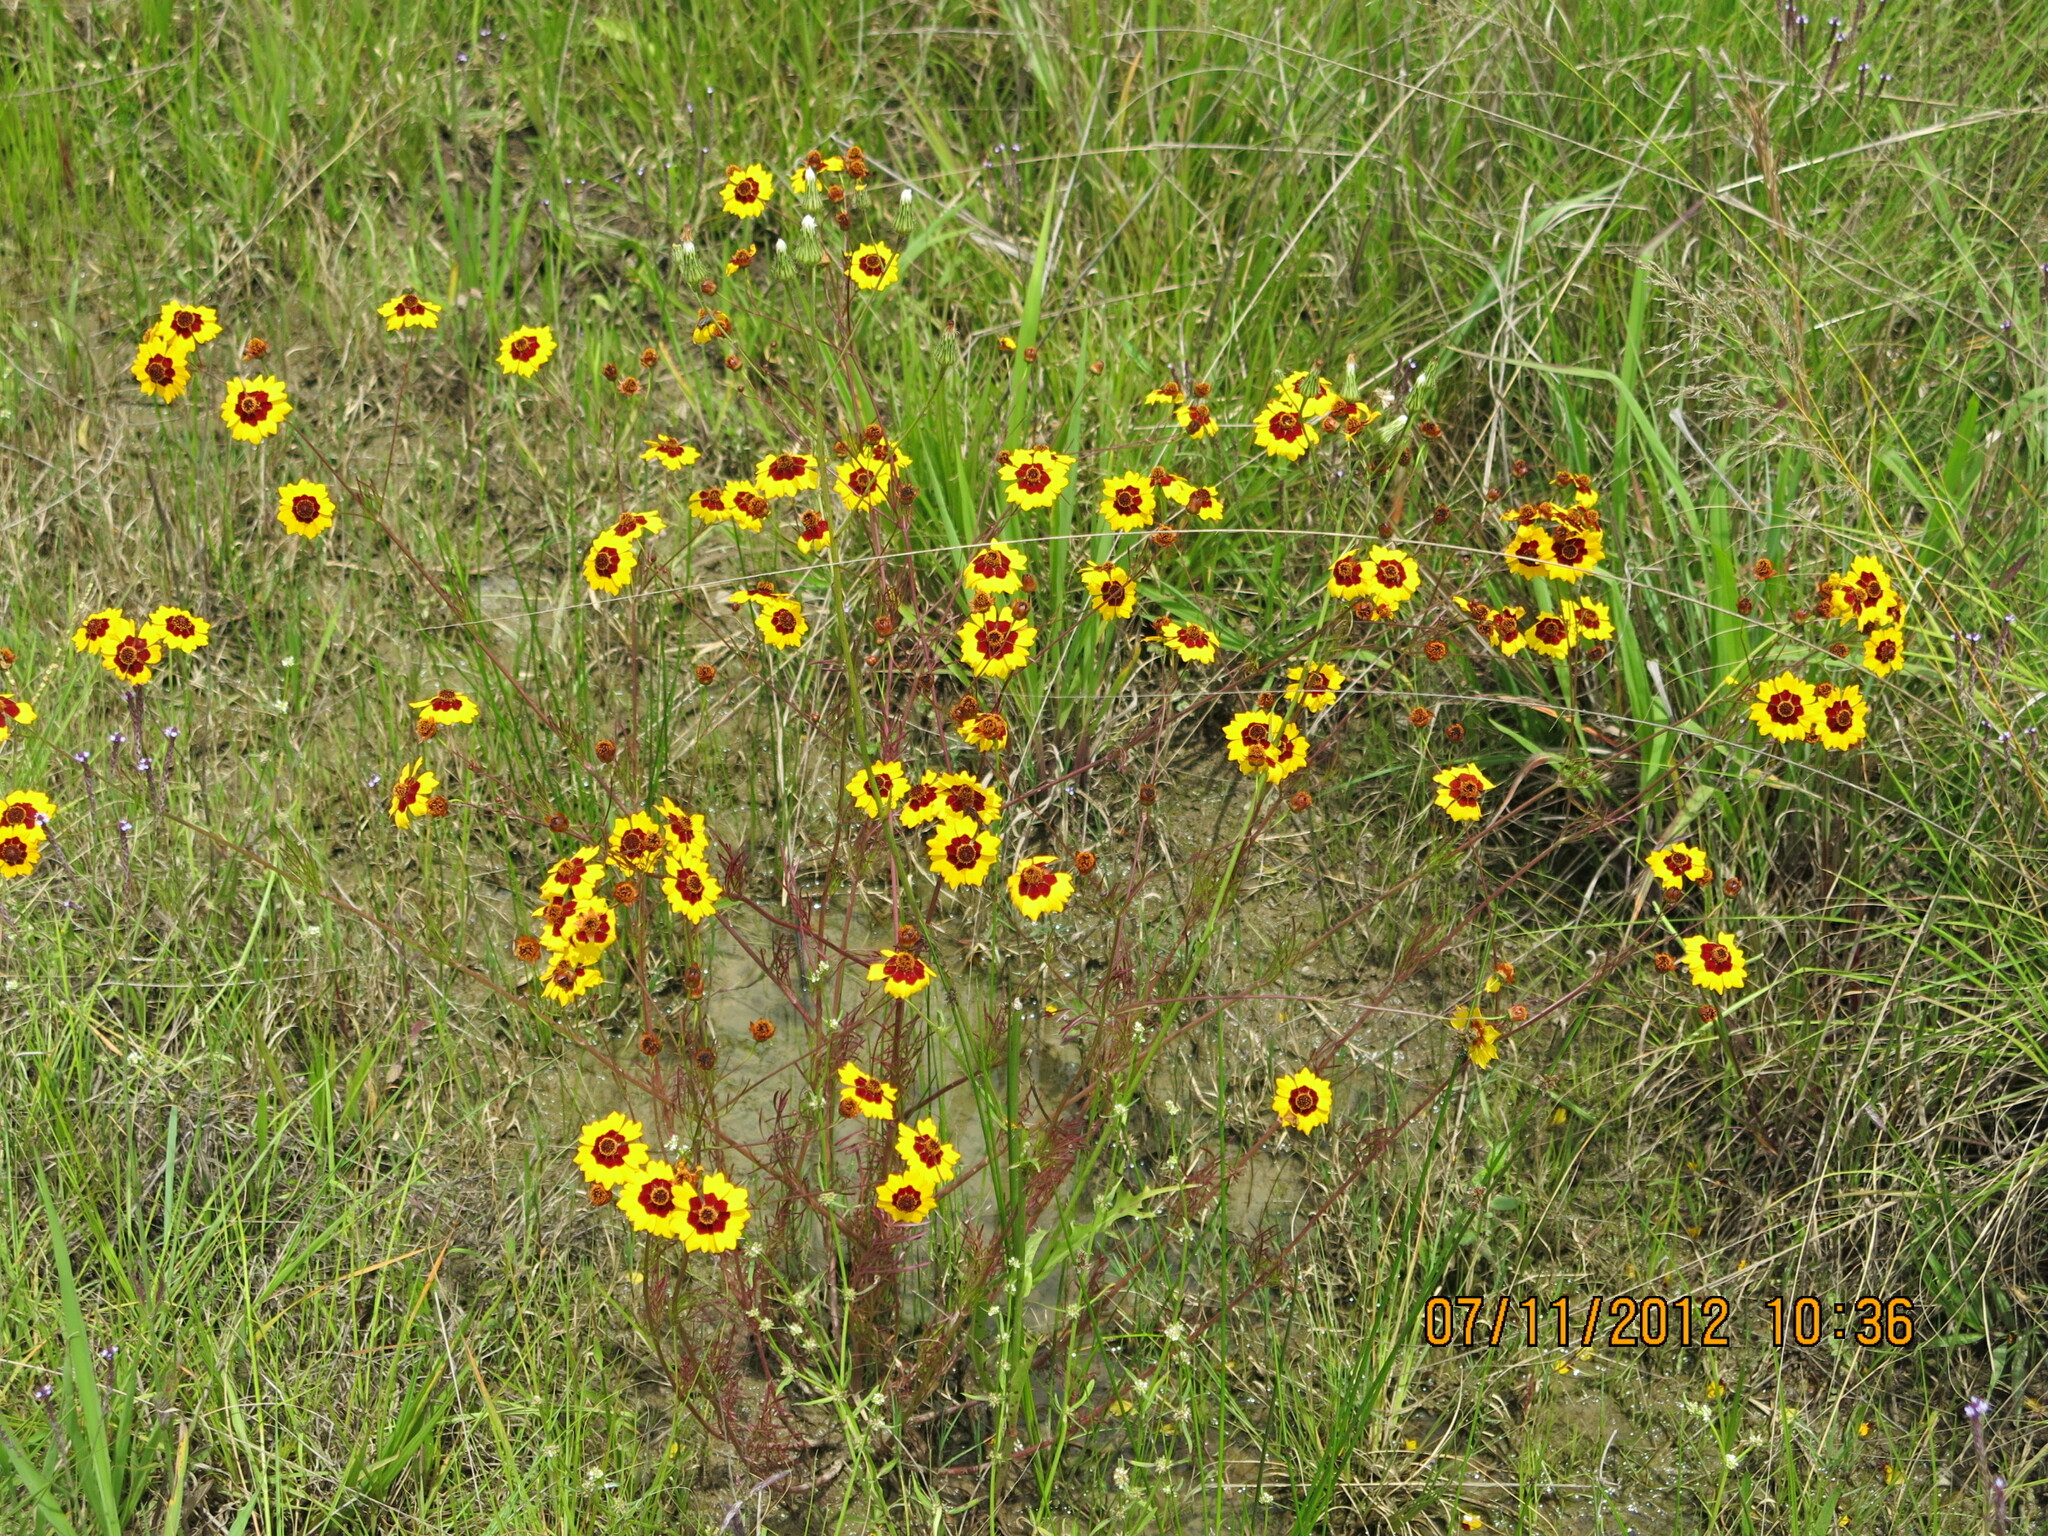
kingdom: Plantae
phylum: Tracheophyta
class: Magnoliopsida
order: Asterales
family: Asteraceae
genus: Coreopsis
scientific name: Coreopsis tinctoria
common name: Garden tickseed
